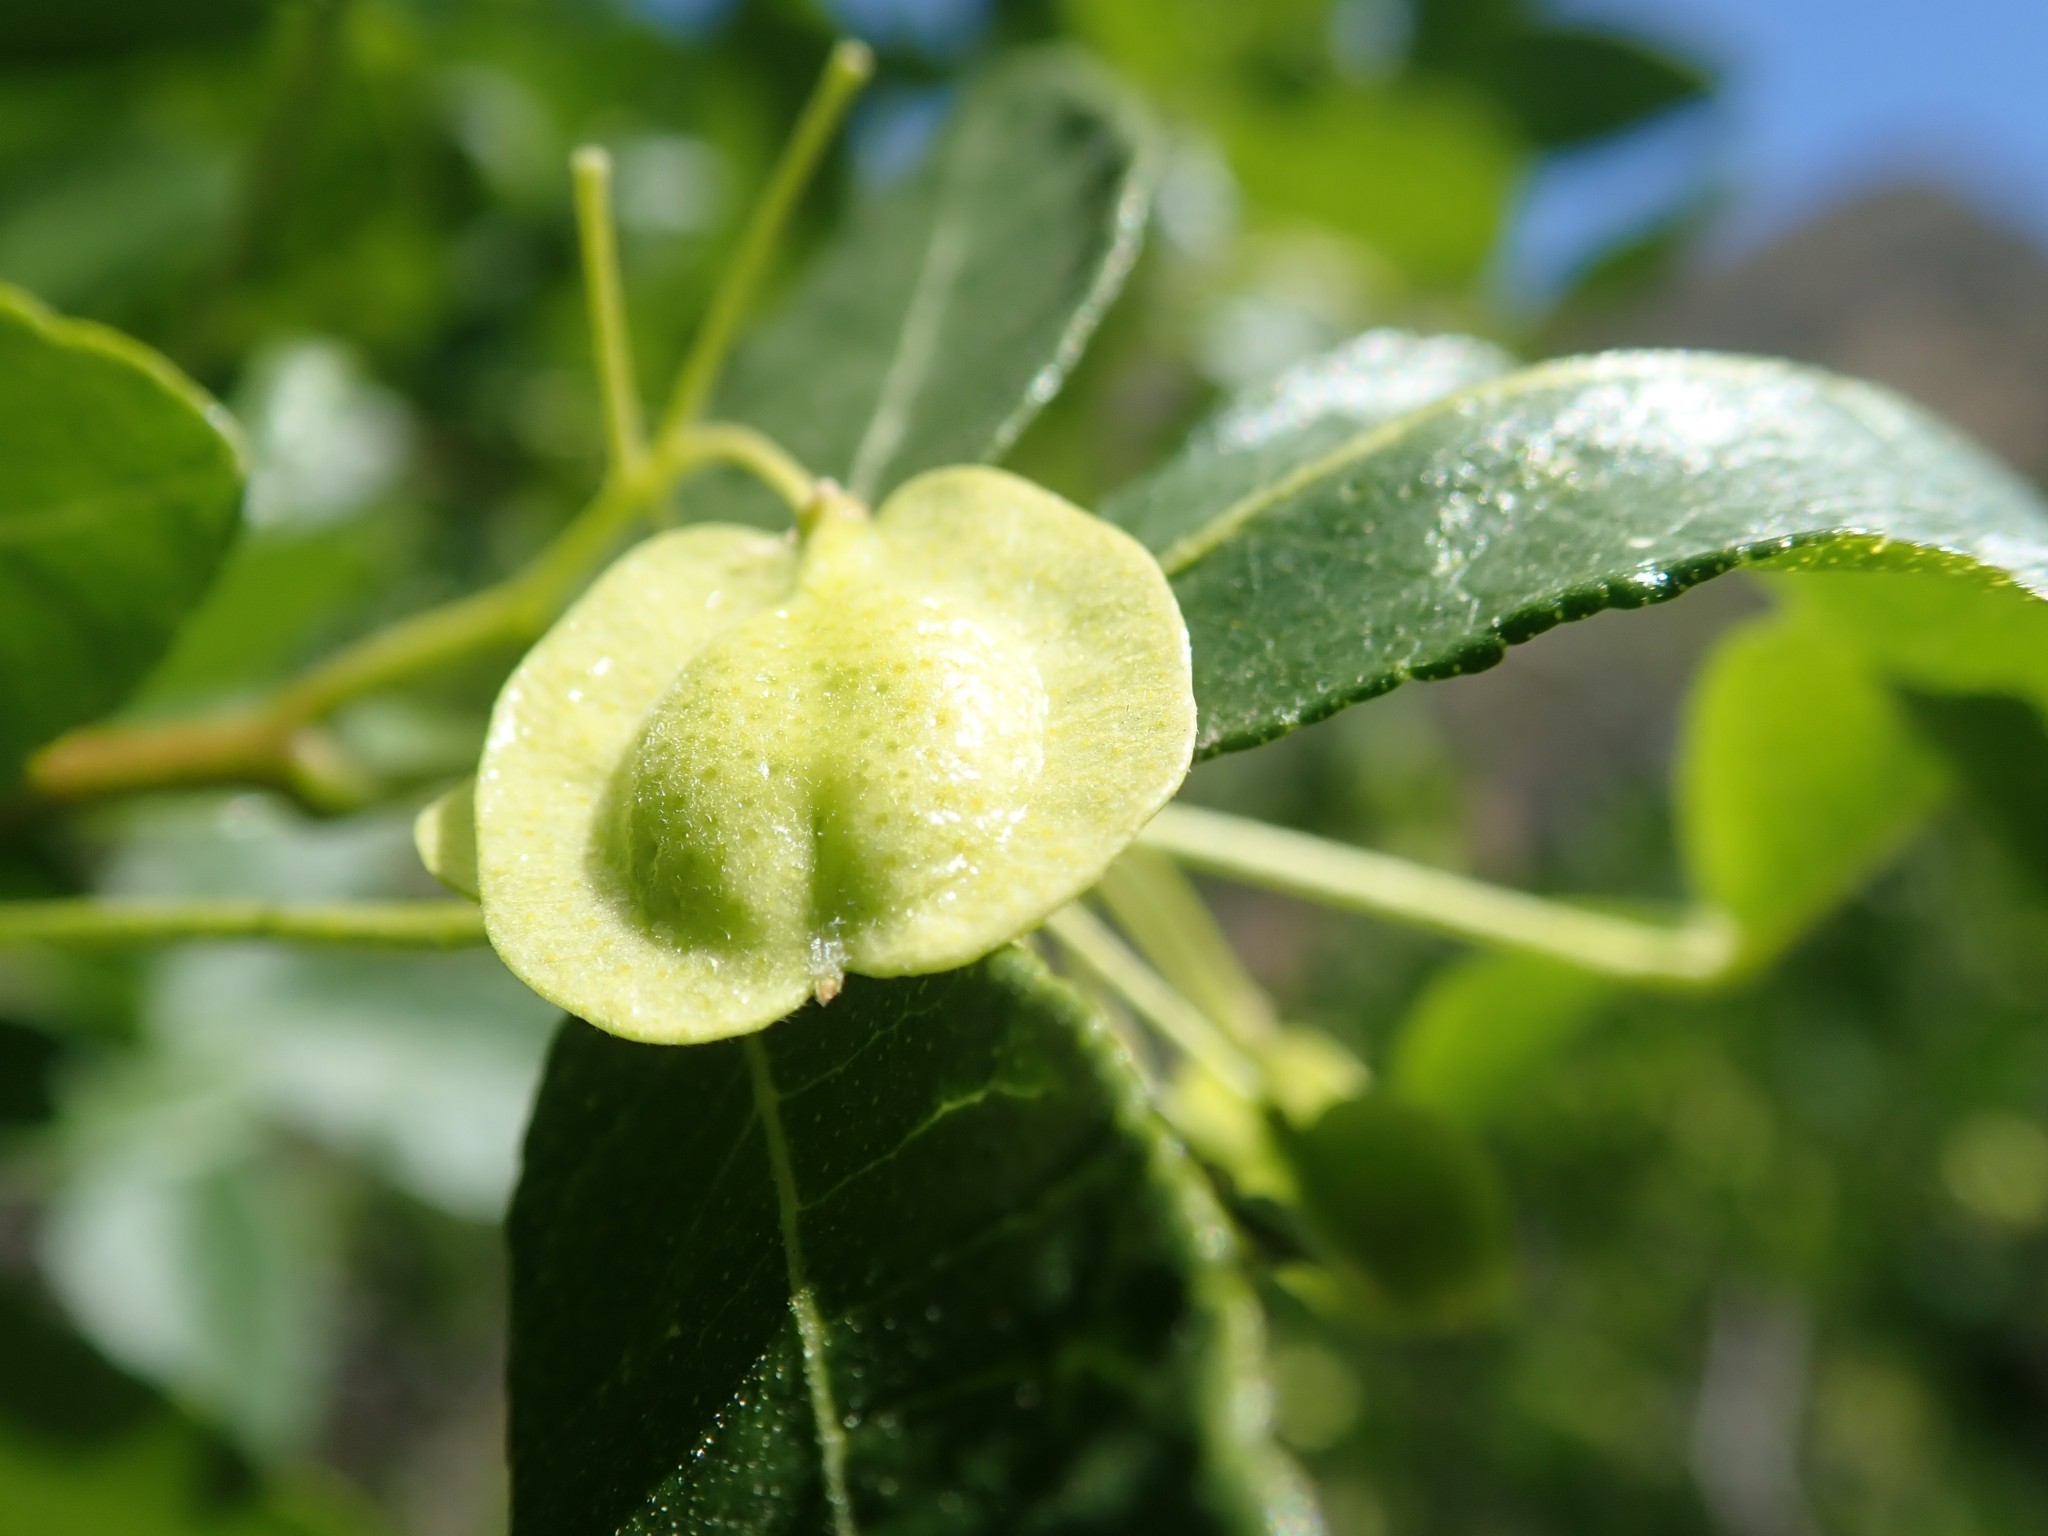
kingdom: Plantae
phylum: Tracheophyta
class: Magnoliopsida
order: Sapindales
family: Rutaceae
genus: Ptelea
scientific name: Ptelea crenulata
